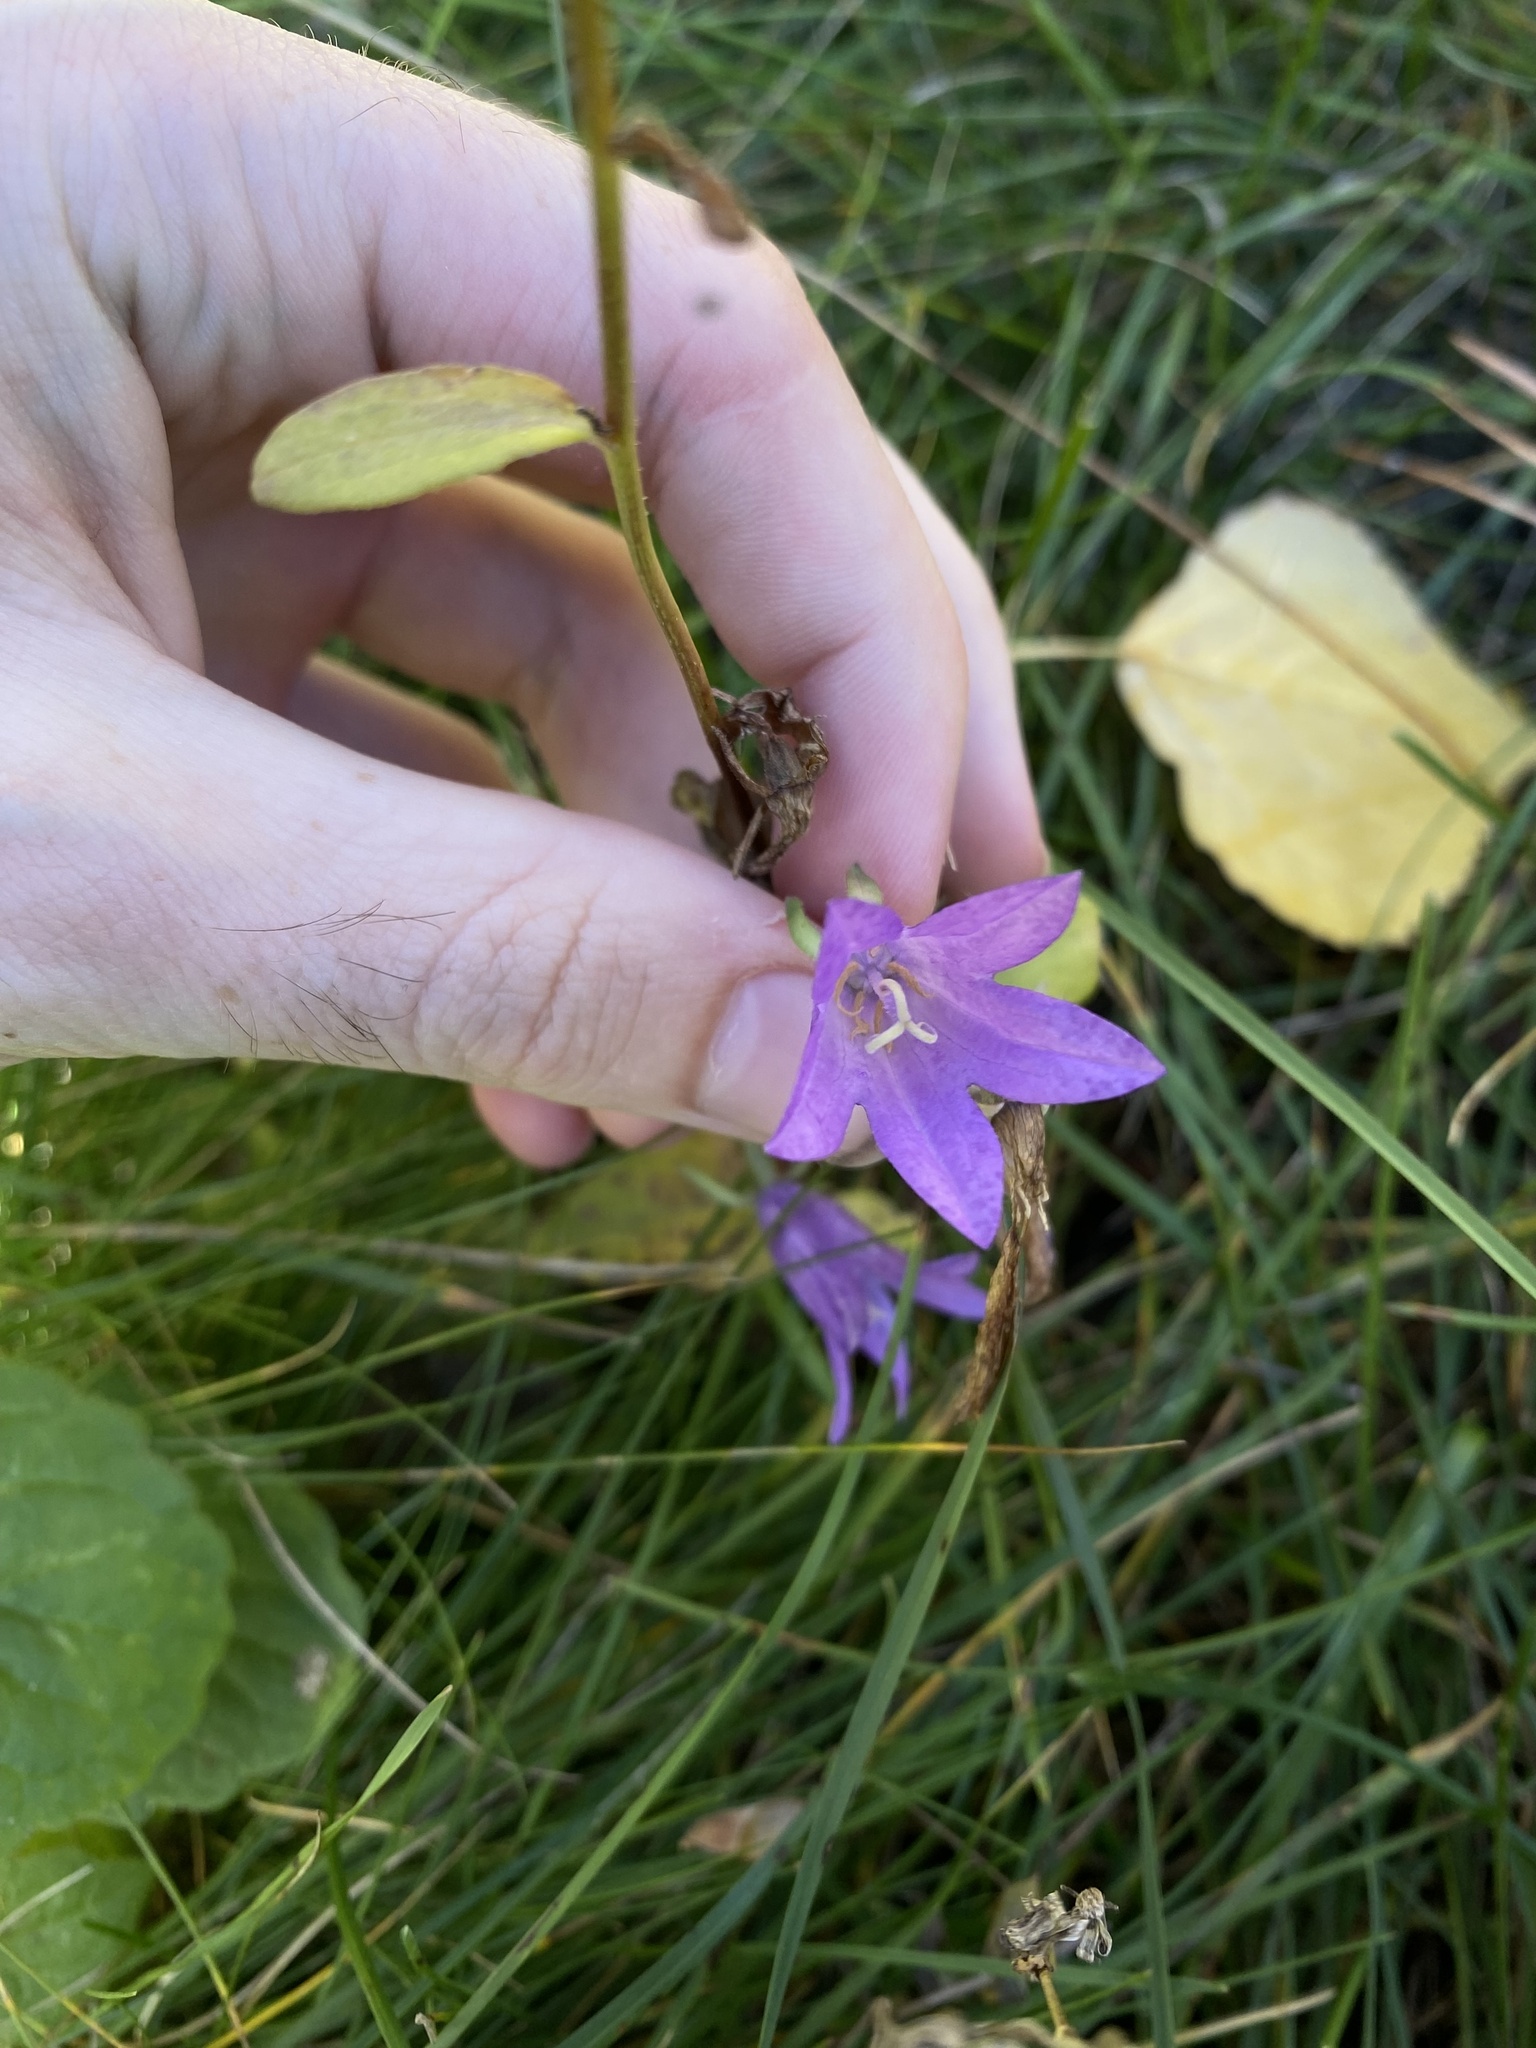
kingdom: Plantae
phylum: Tracheophyta
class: Magnoliopsida
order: Asterales
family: Campanulaceae
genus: Campanula
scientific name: Campanula rapunculoides
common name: Creeping bellflower
